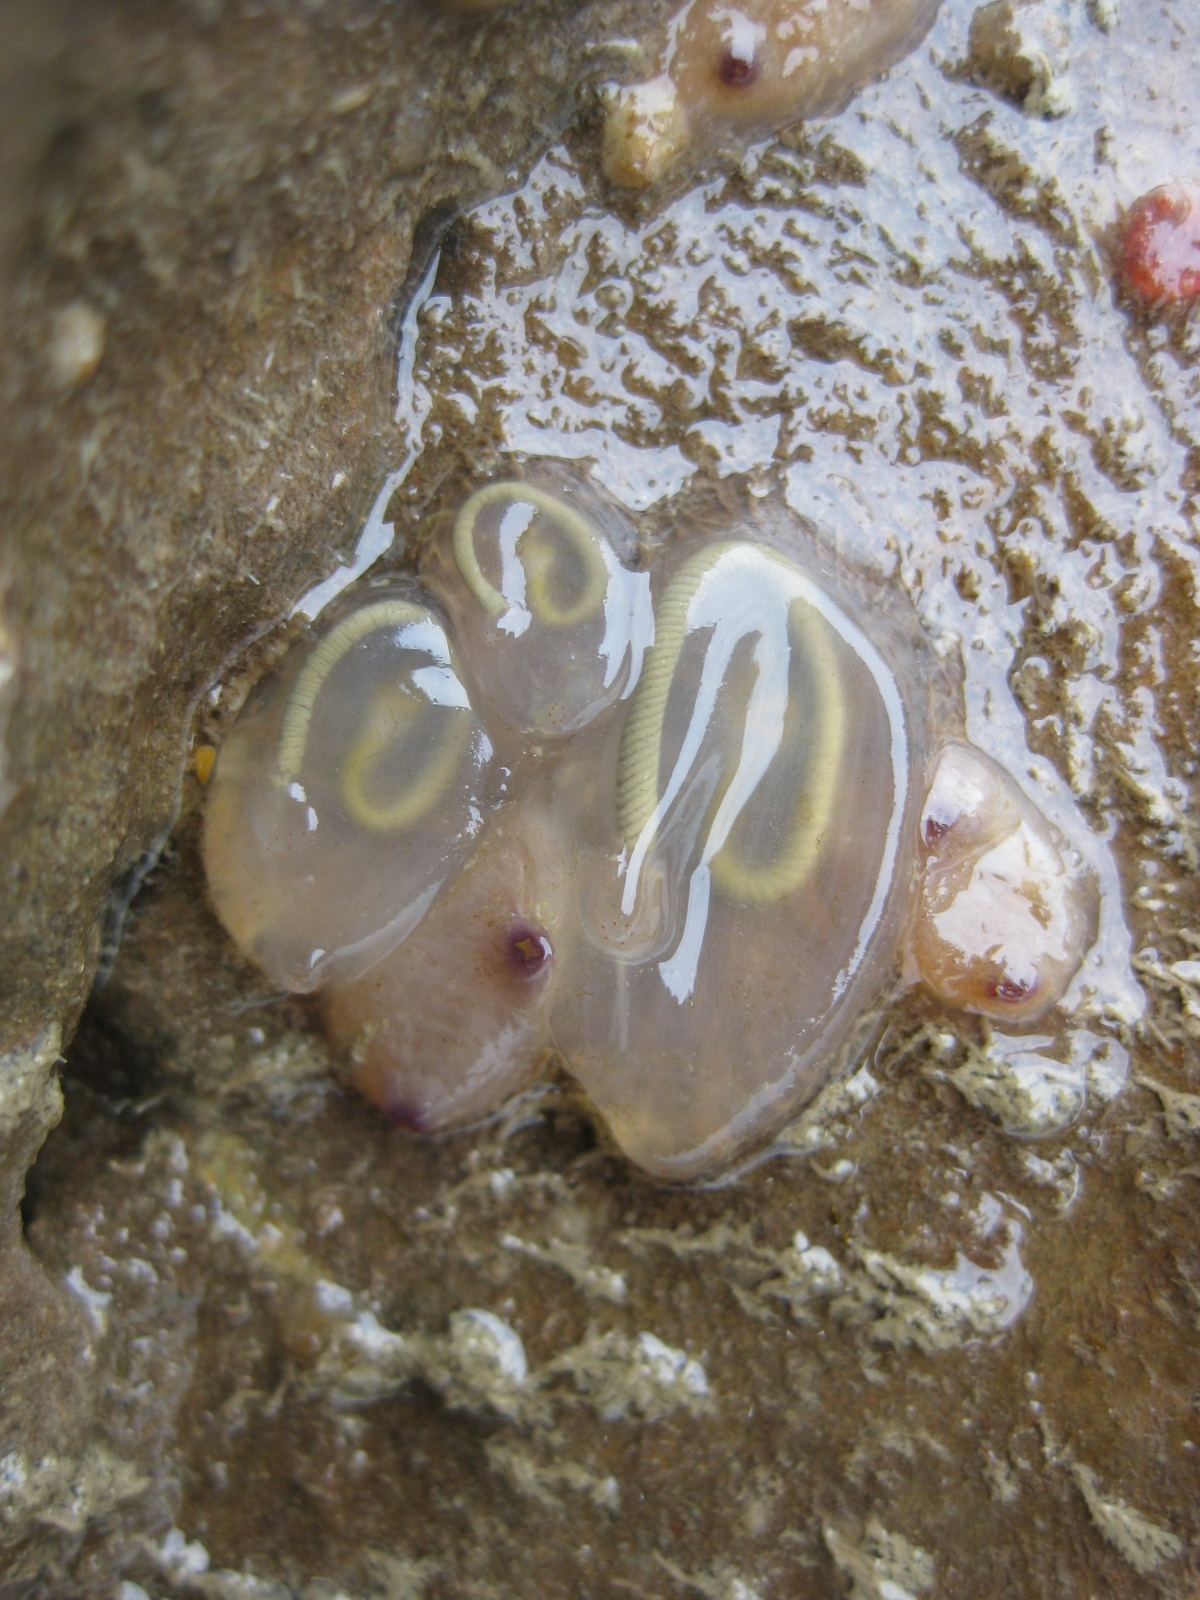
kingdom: Animalia
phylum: Chordata
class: Ascidiacea
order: Phlebobranchia
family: Agneziidae
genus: Agnezia
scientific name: Agnezia glaciata
